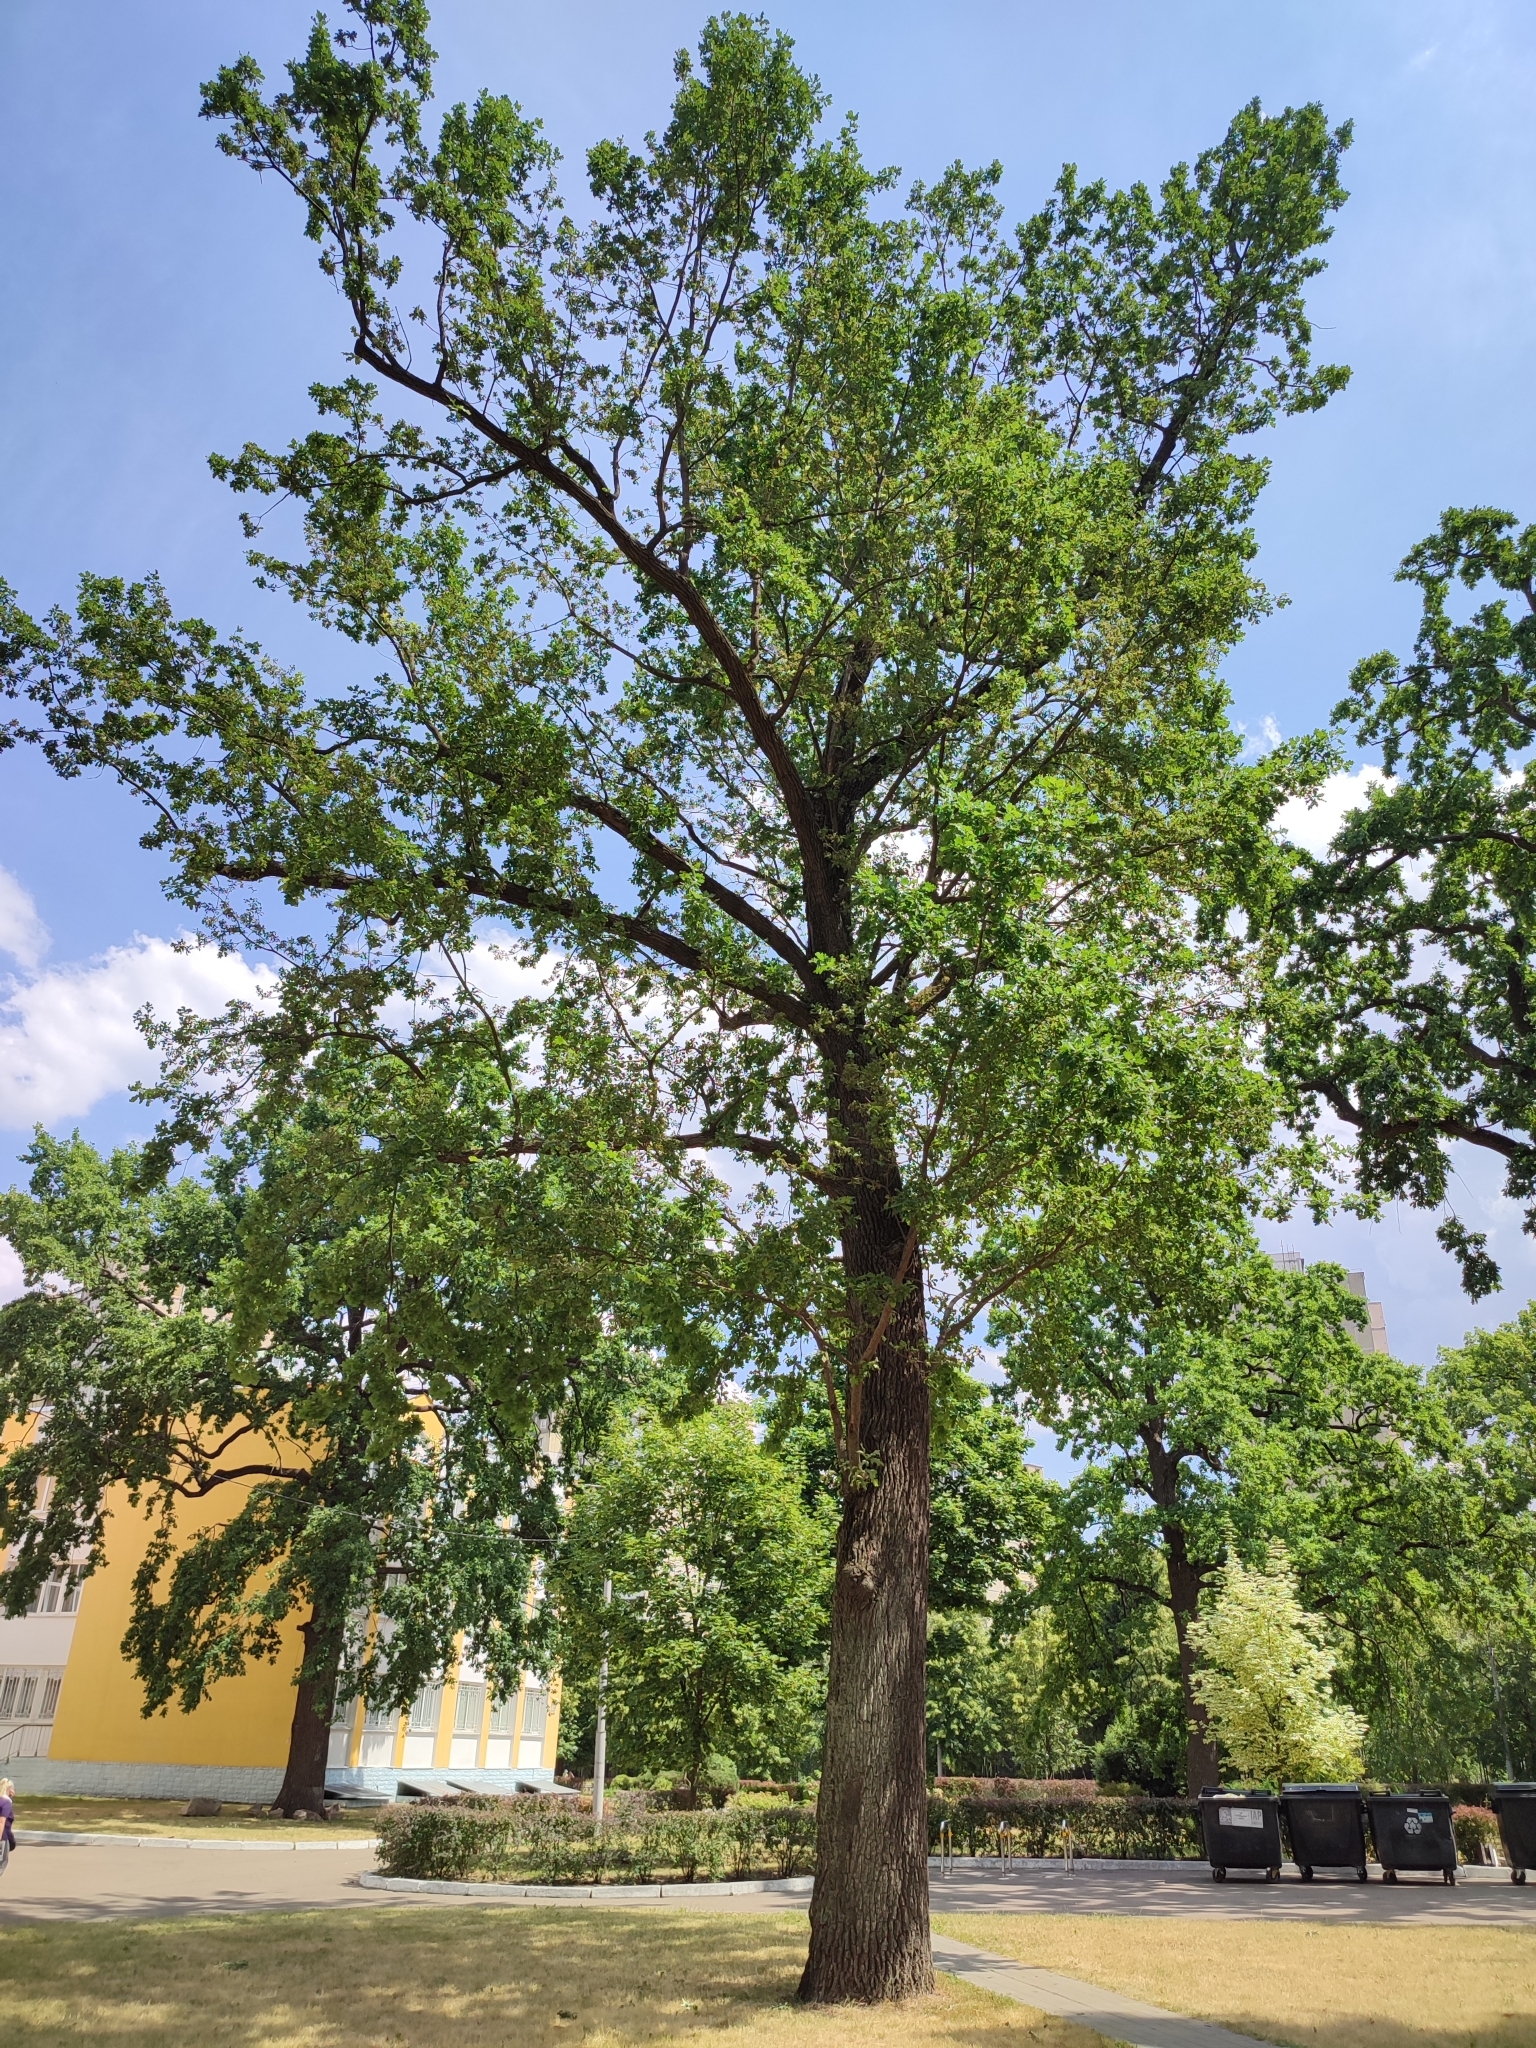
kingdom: Plantae
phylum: Tracheophyta
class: Magnoliopsida
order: Fagales
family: Fagaceae
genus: Quercus
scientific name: Quercus robur
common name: Pedunculate oak
